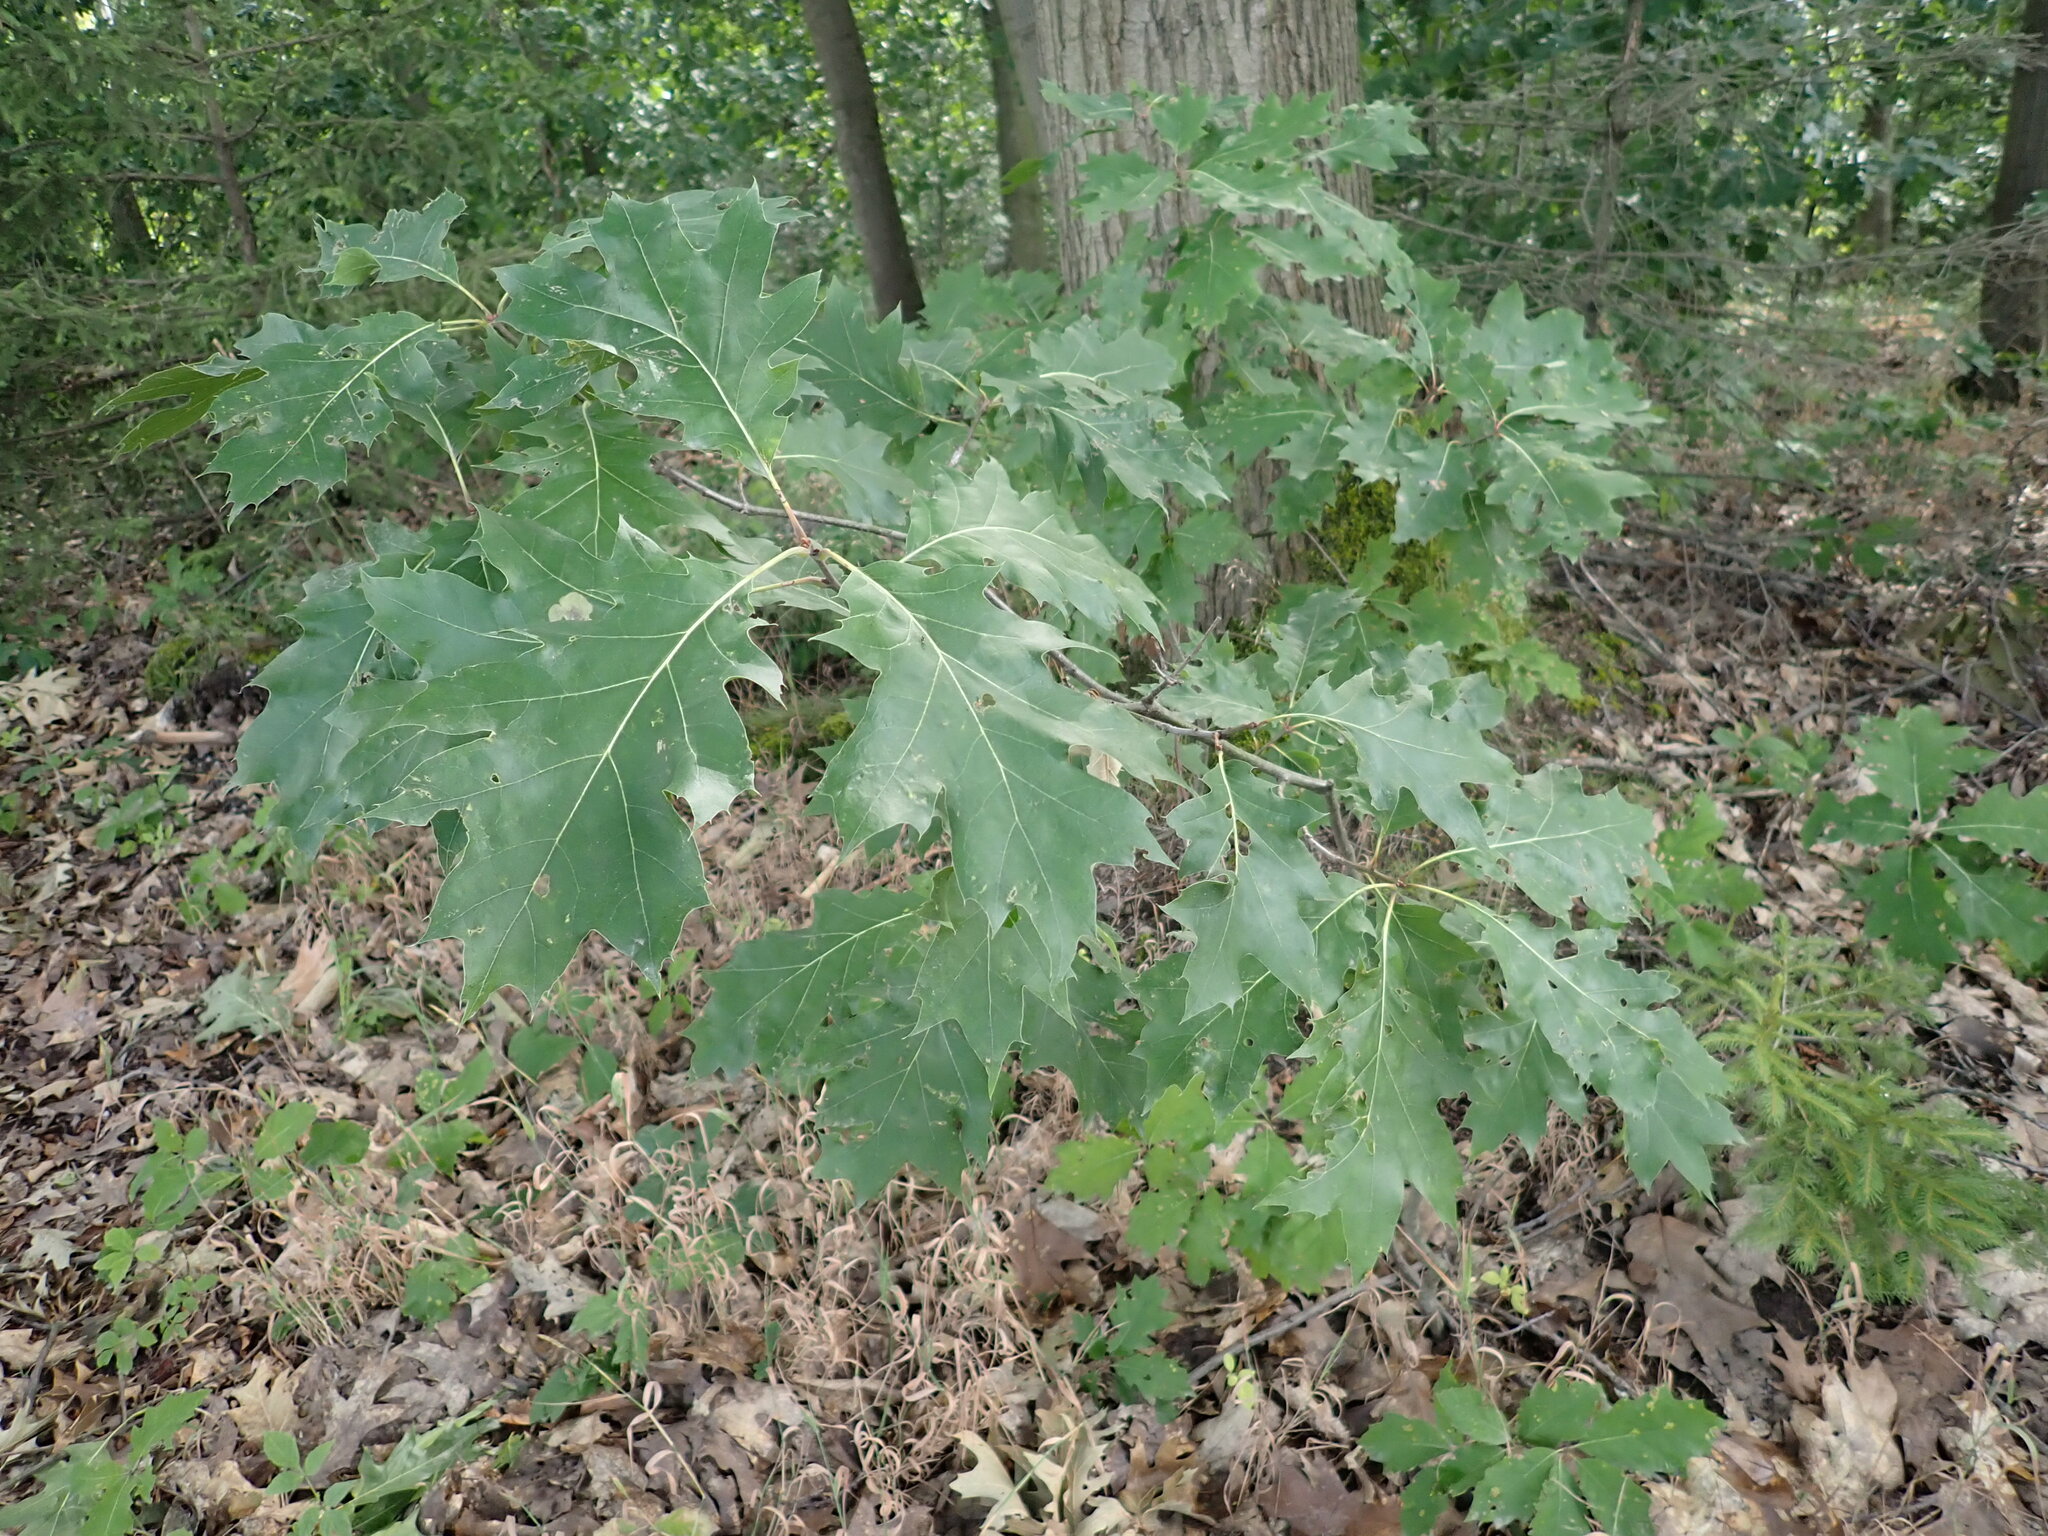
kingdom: Plantae
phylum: Tracheophyta
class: Magnoliopsida
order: Fagales
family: Fagaceae
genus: Quercus
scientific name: Quercus rubra
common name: Red oak
